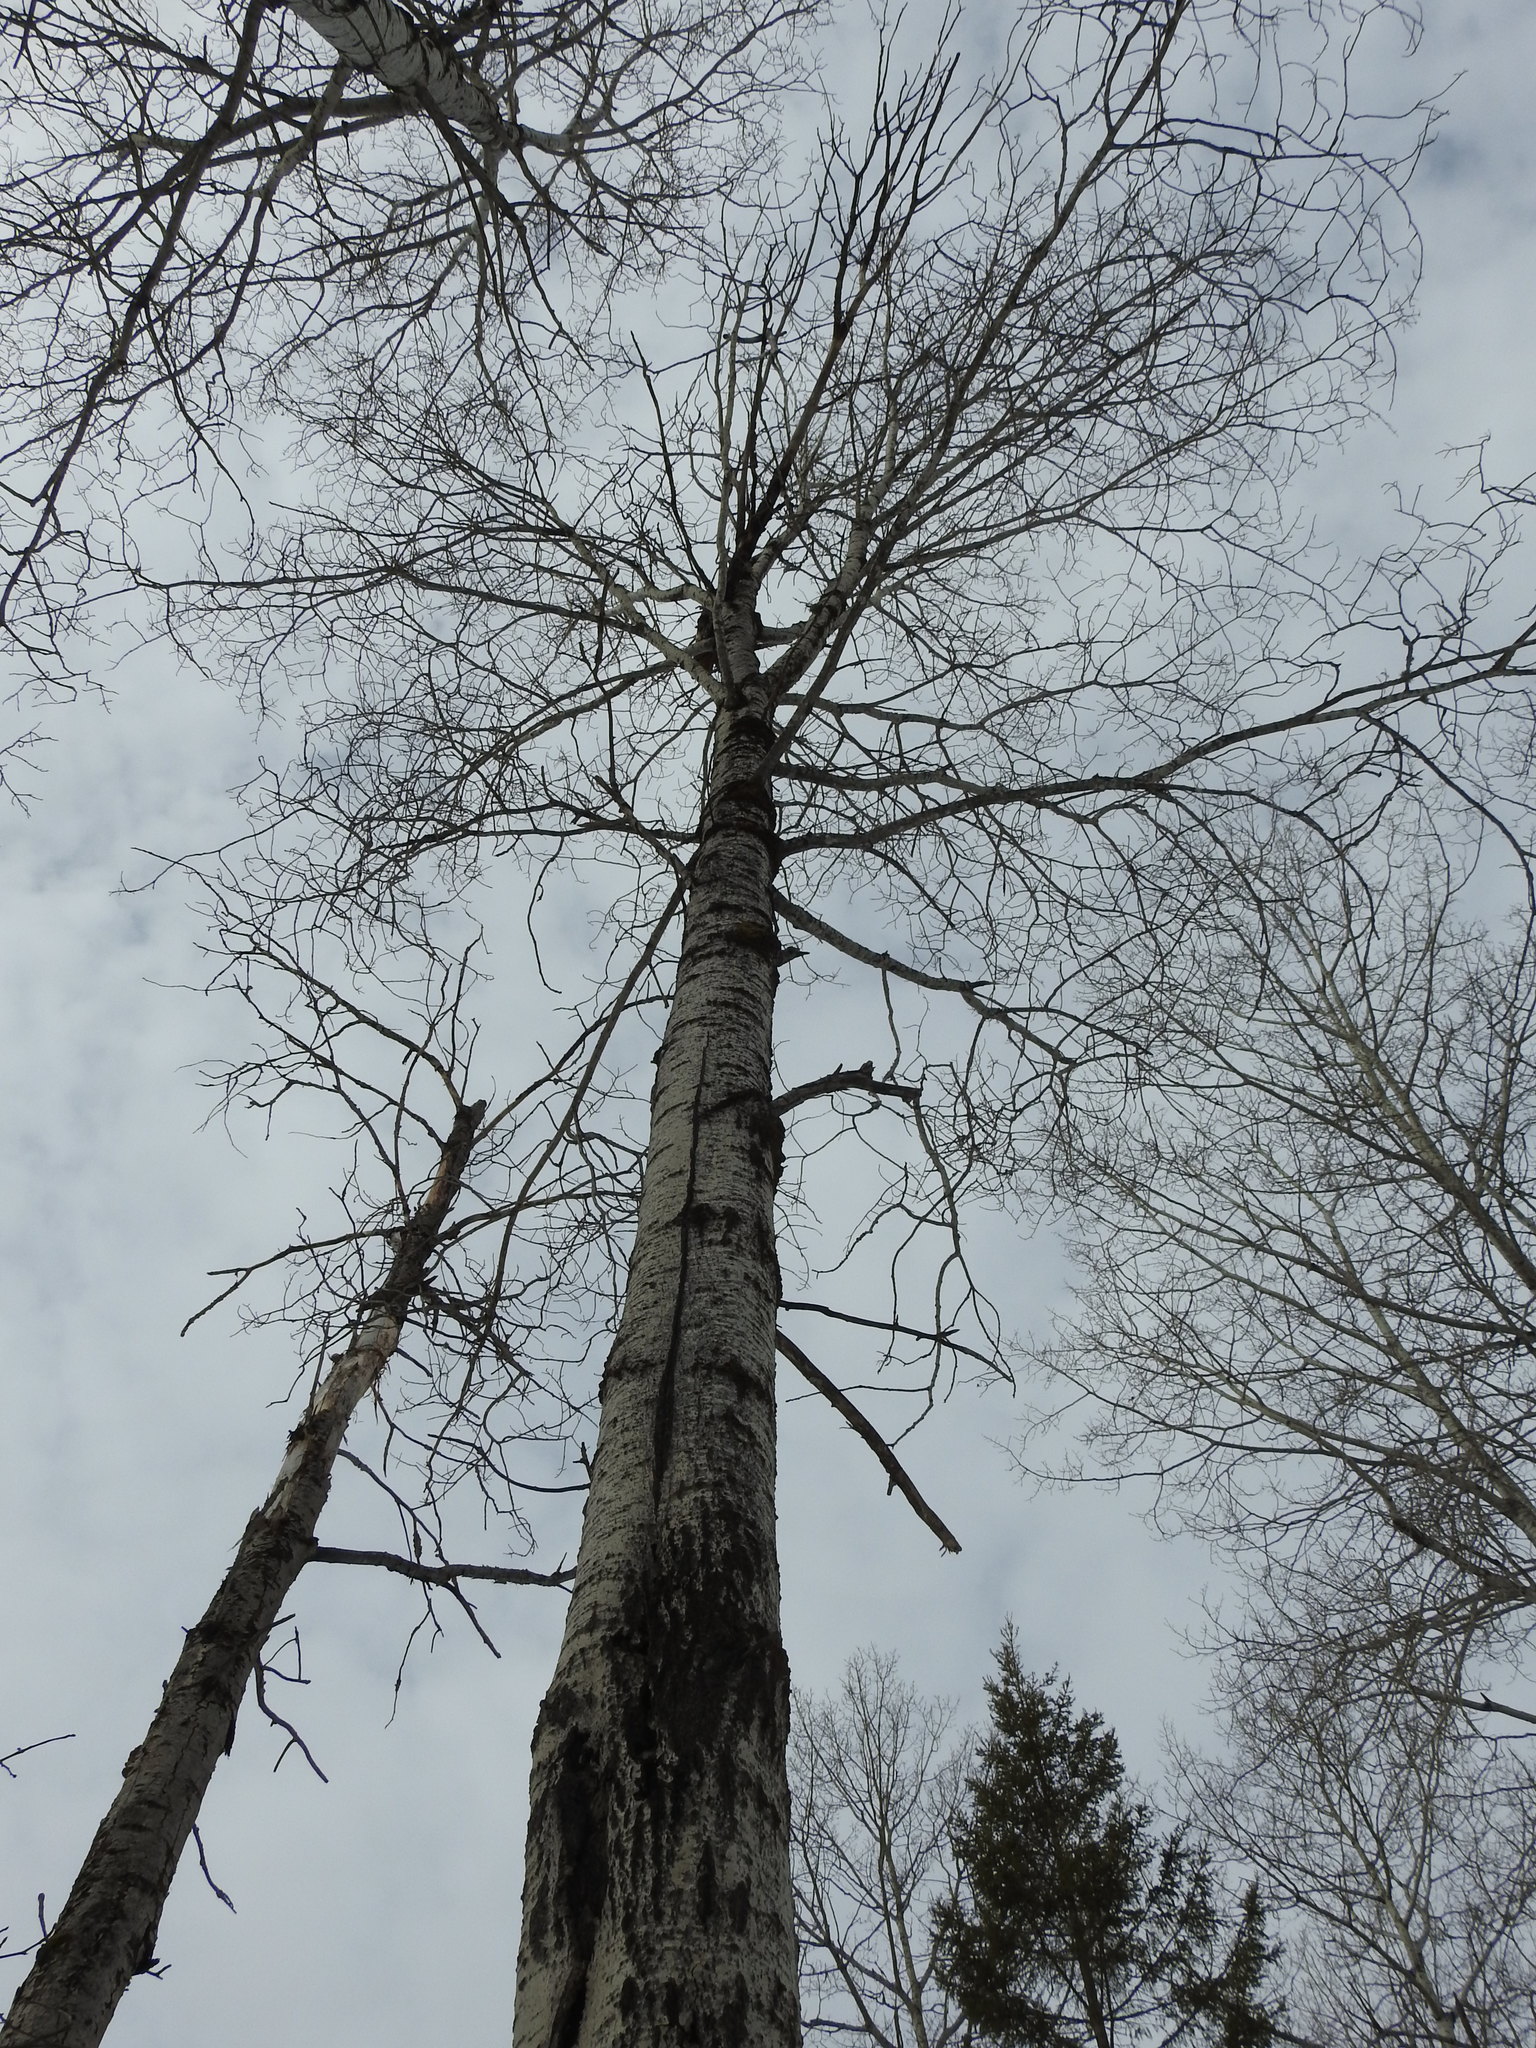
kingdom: Plantae
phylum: Tracheophyta
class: Magnoliopsida
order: Malpighiales
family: Salicaceae
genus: Populus
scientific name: Populus tremuloides
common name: Quaking aspen
